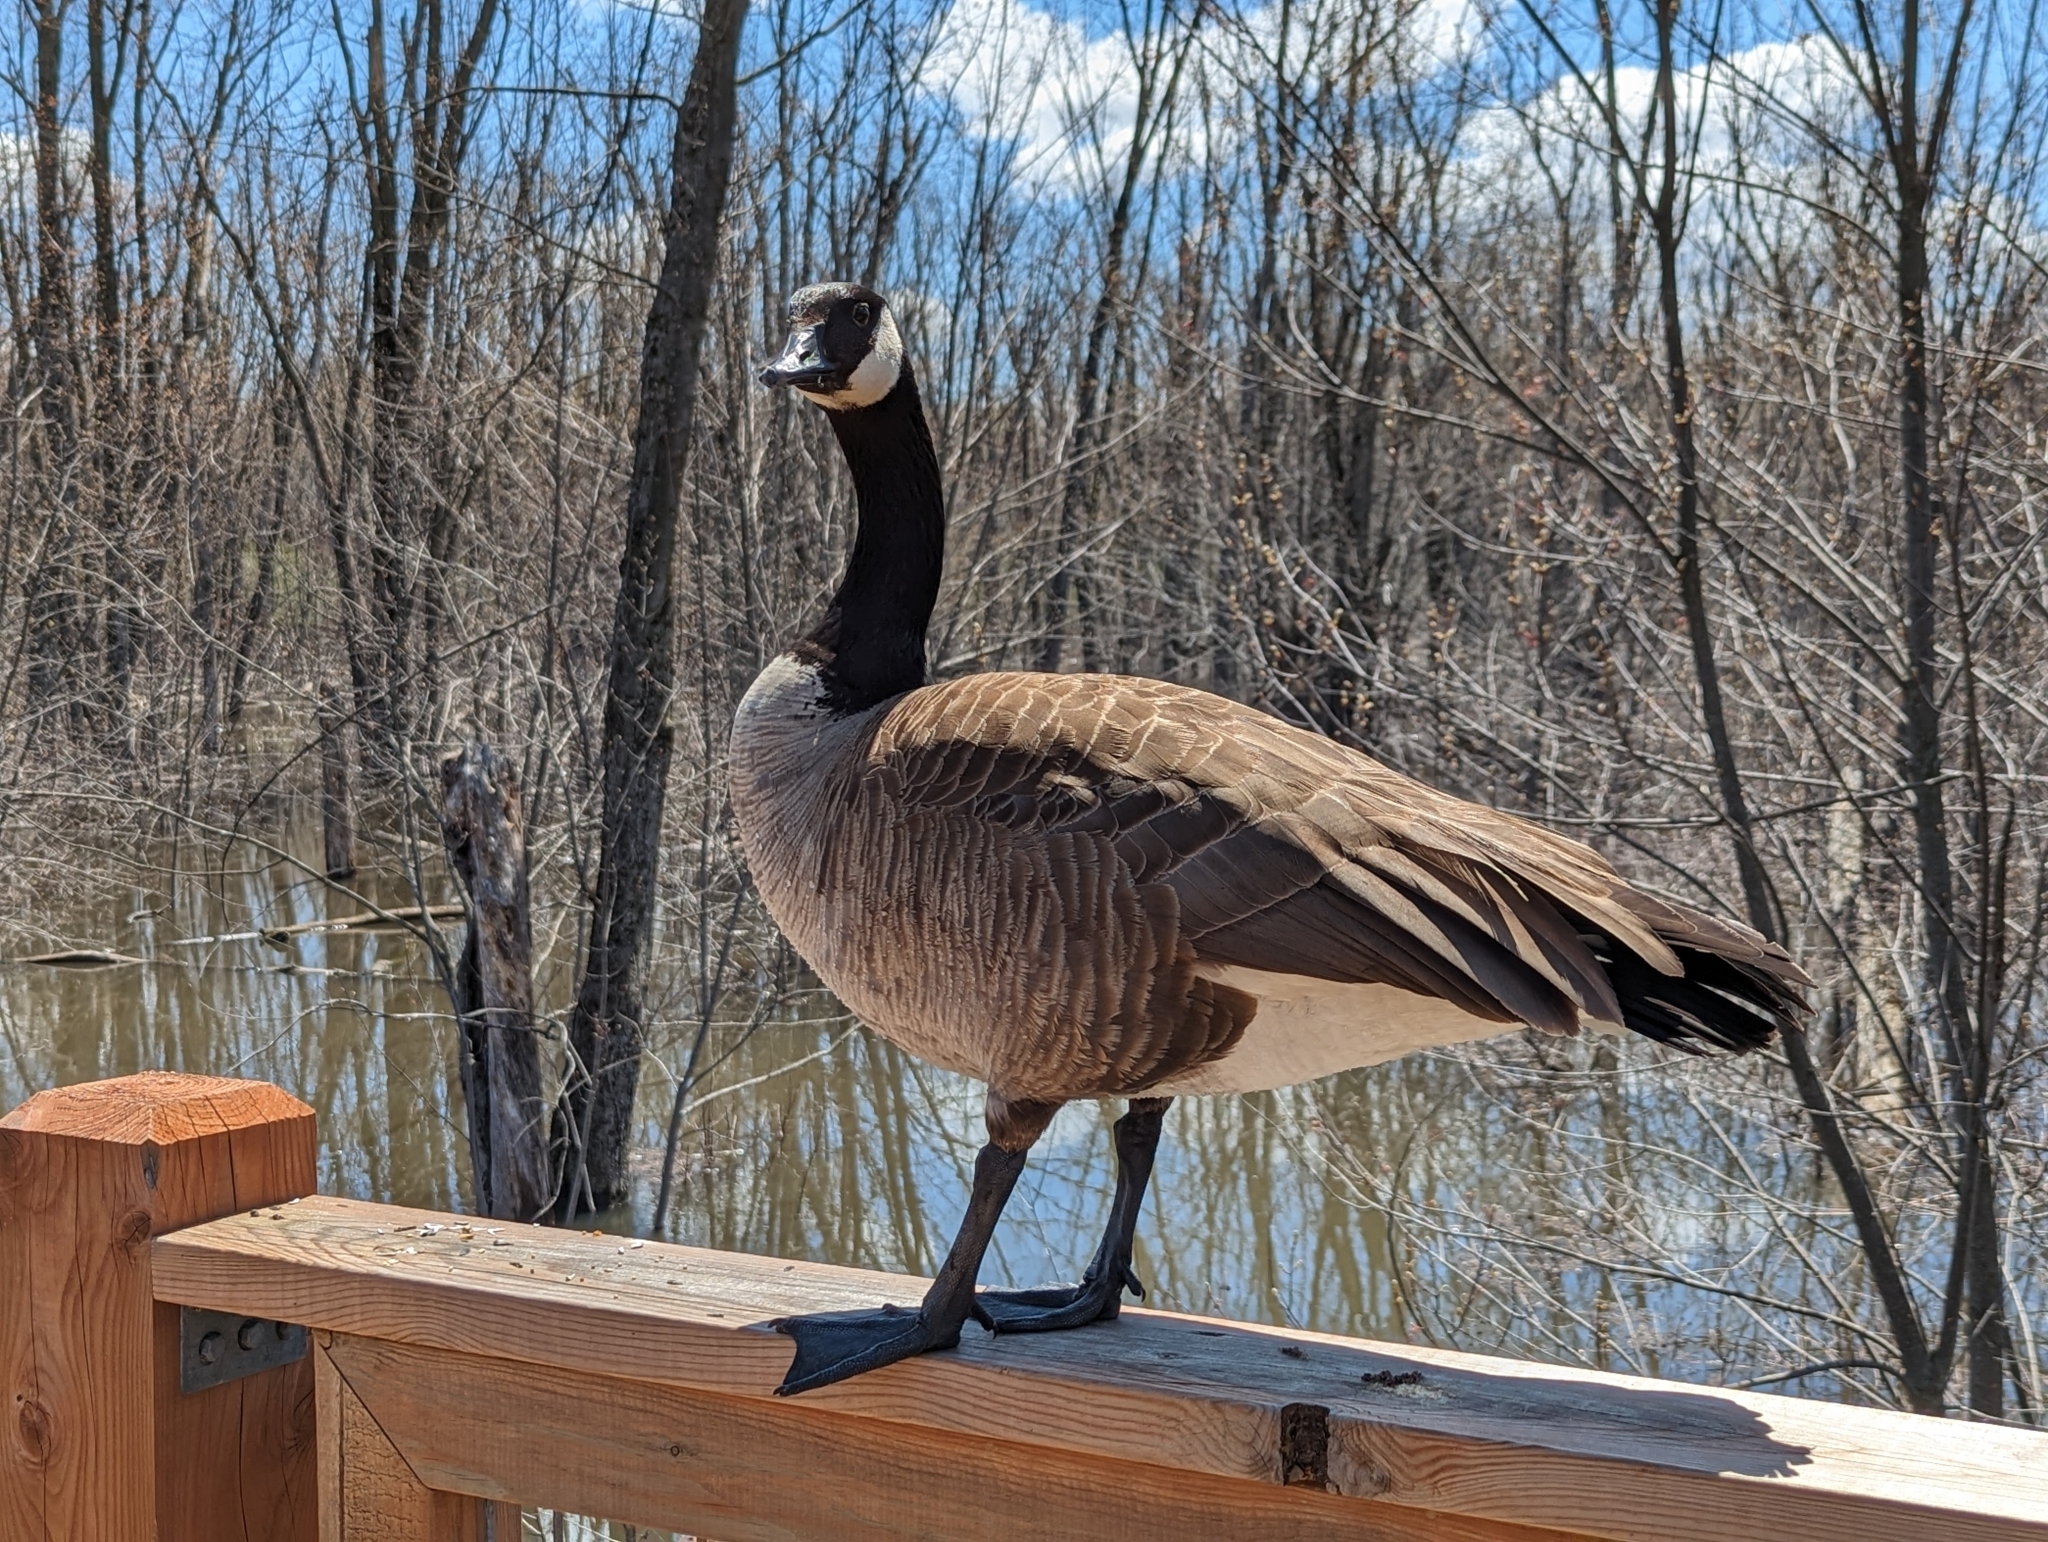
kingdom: Animalia
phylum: Chordata
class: Aves
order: Anseriformes
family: Anatidae
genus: Branta
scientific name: Branta canadensis
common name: Canada goose
